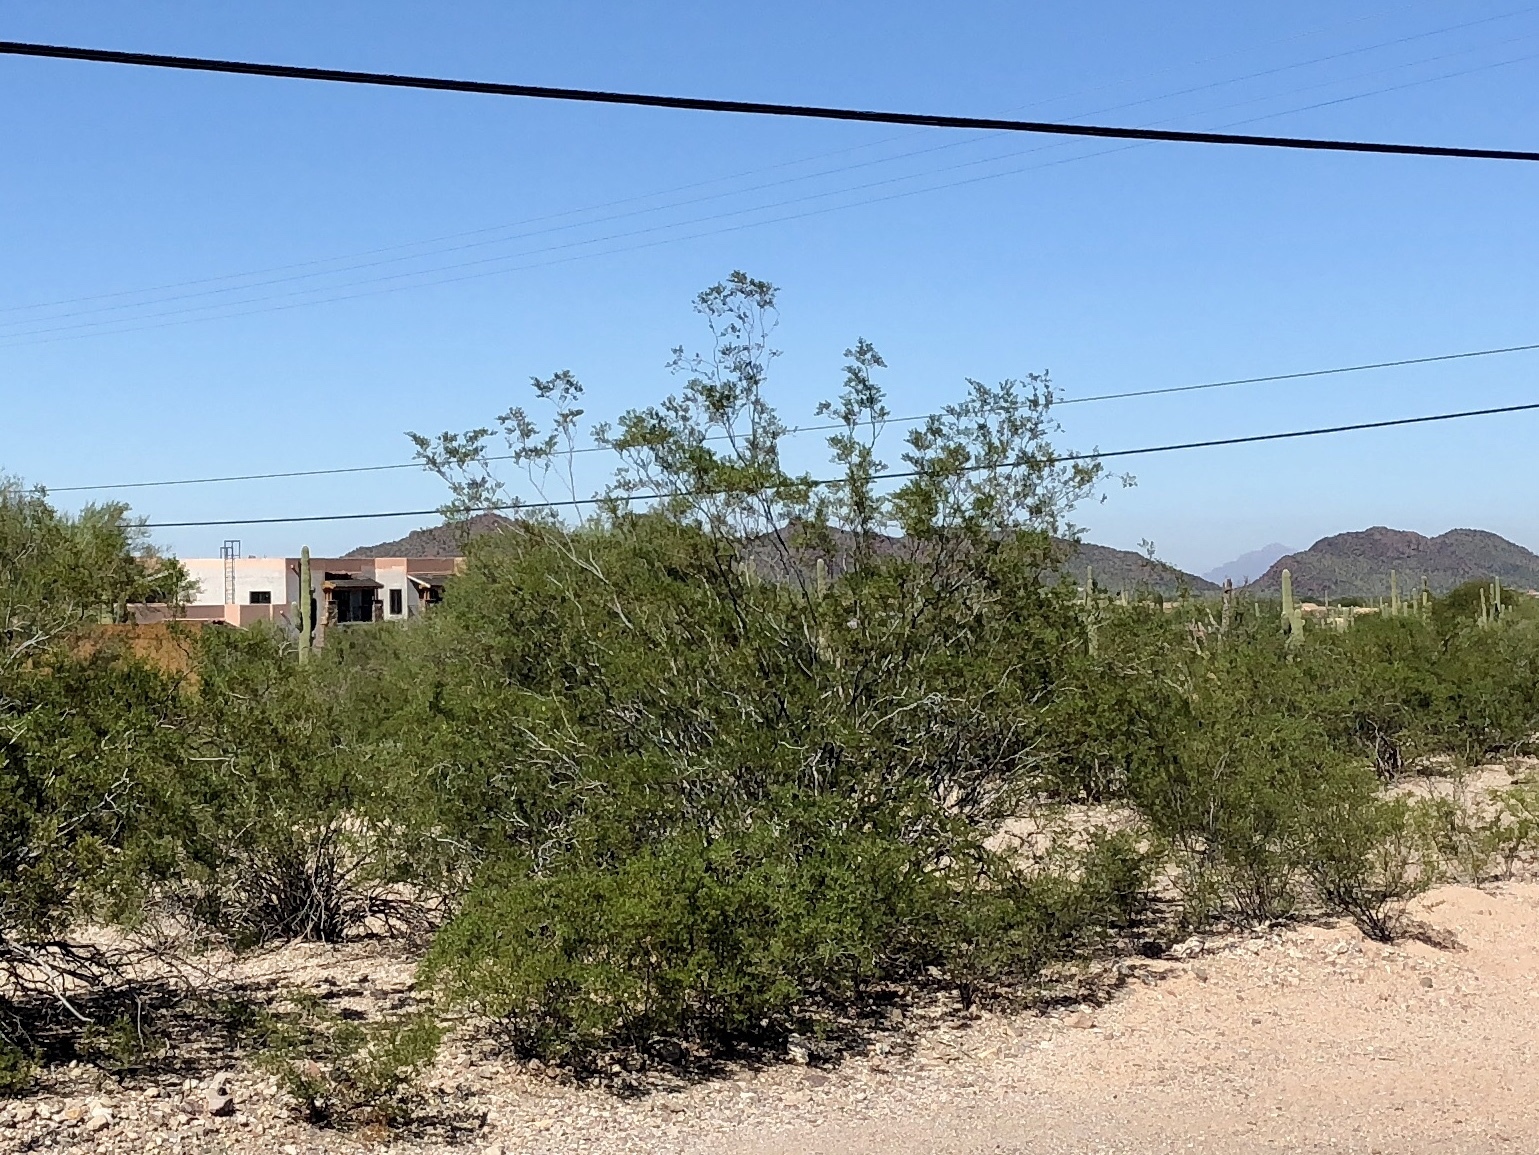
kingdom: Plantae
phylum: Tracheophyta
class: Magnoliopsida
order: Zygophyllales
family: Zygophyllaceae
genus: Larrea
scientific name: Larrea tridentata
